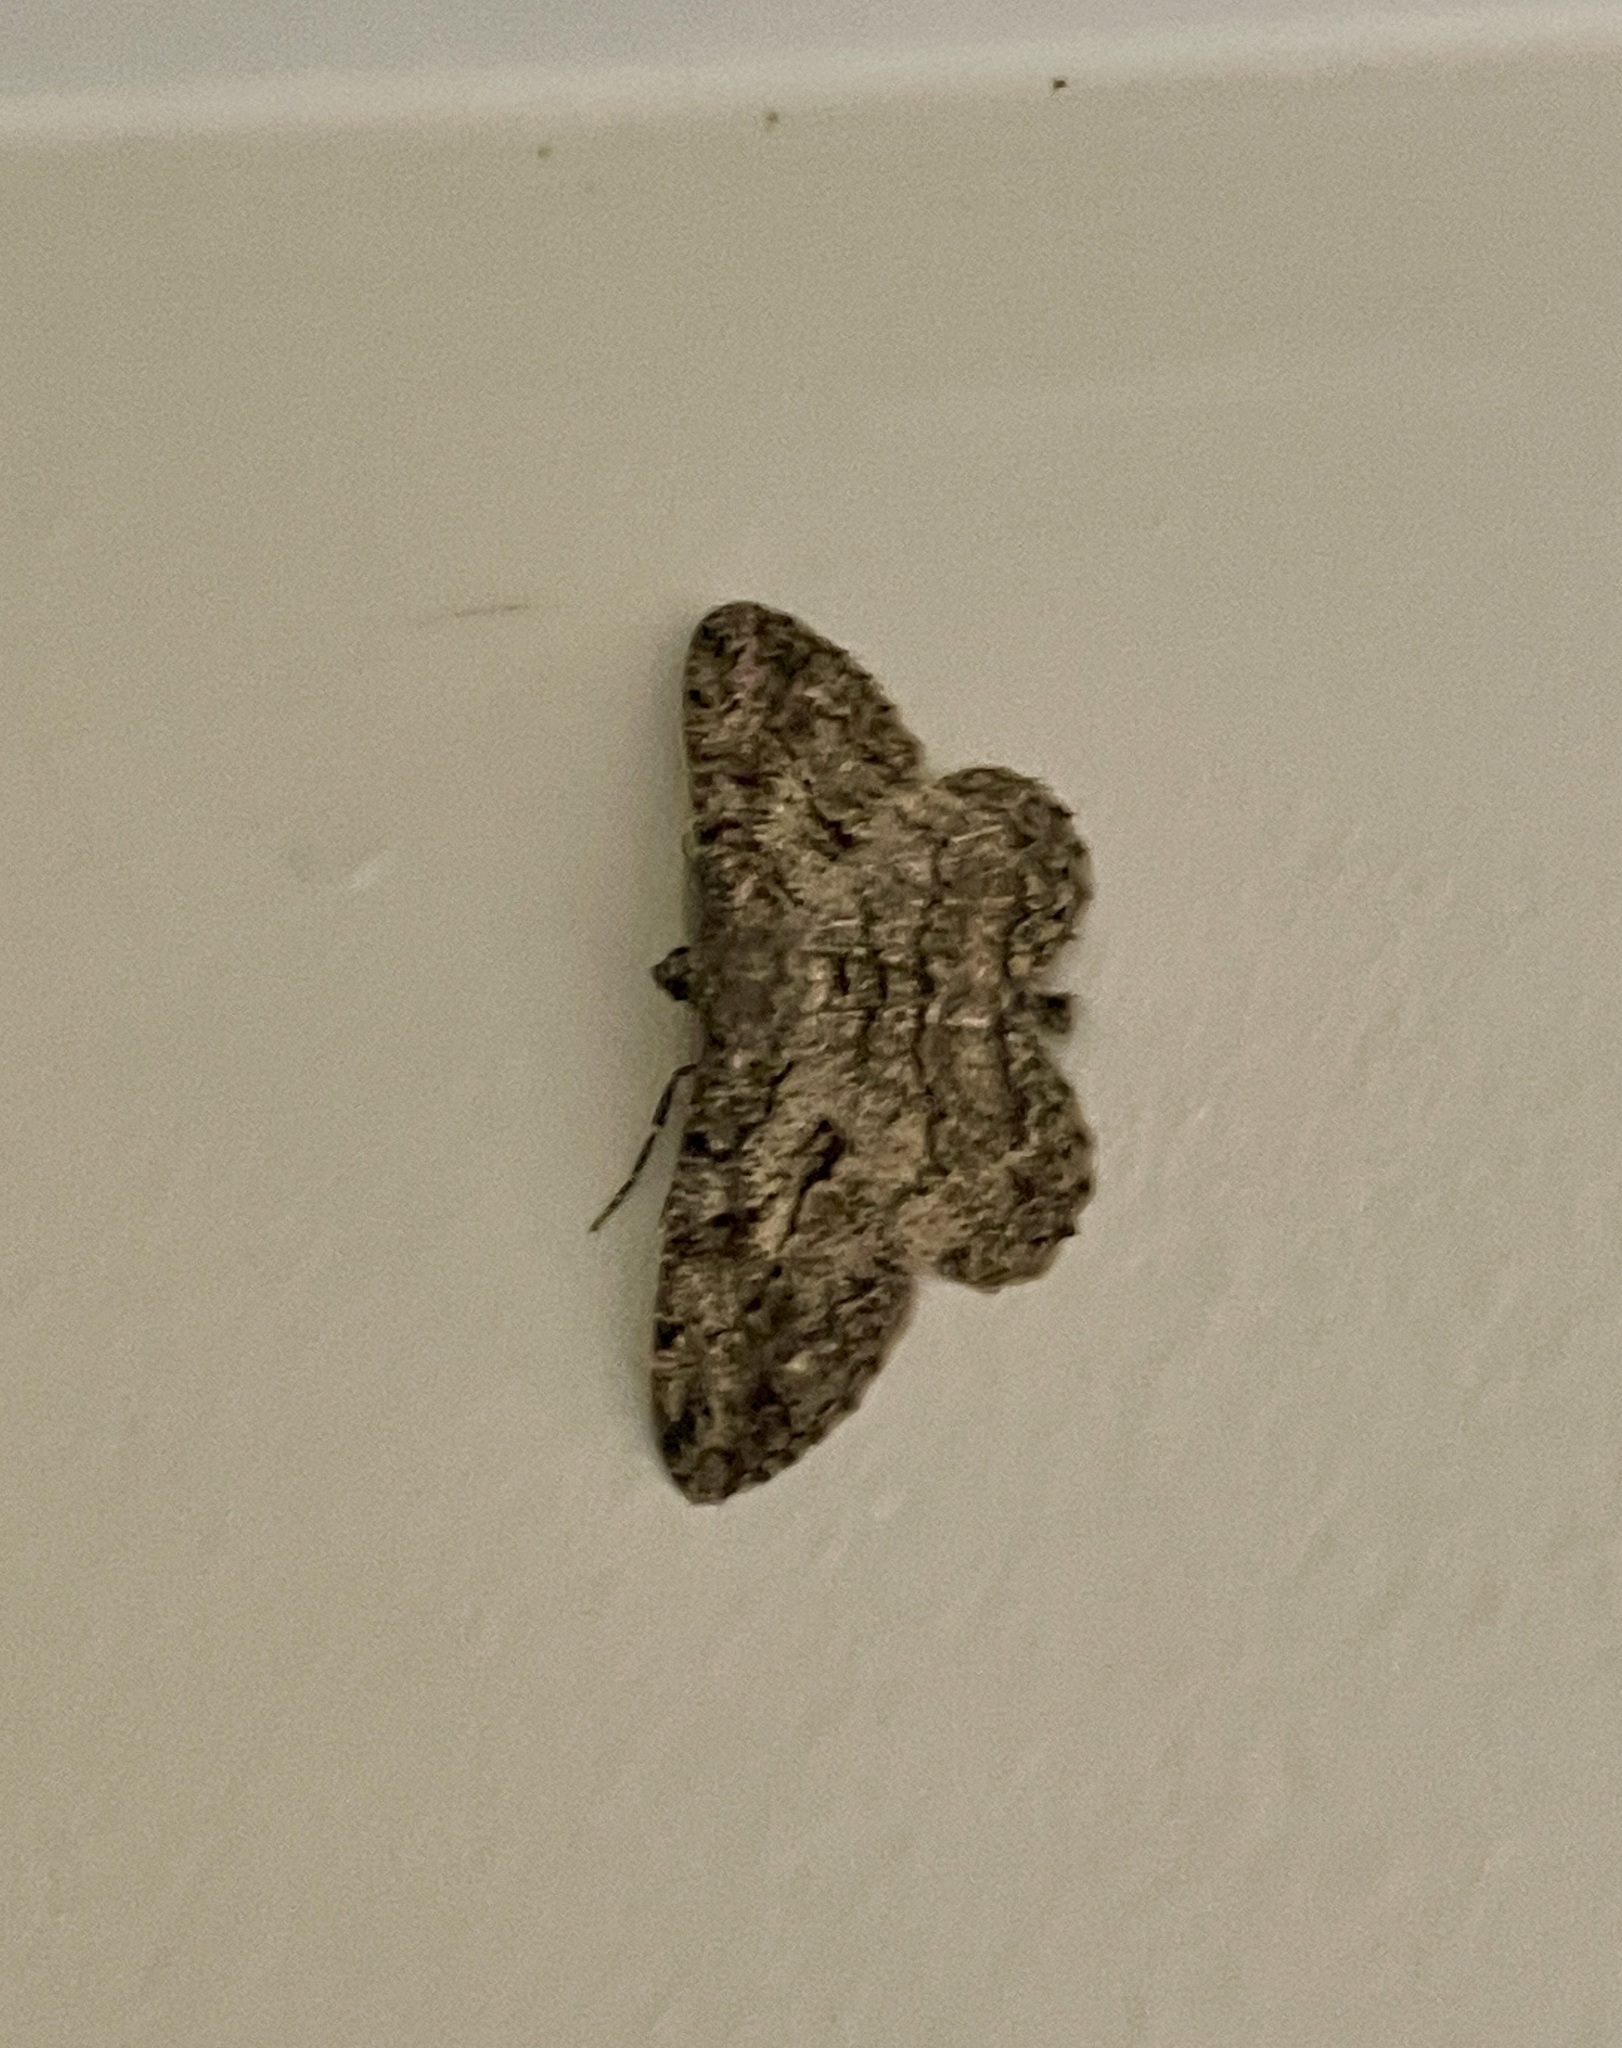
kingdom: Animalia
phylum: Arthropoda
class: Insecta
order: Lepidoptera
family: Geometridae
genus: Peribatodes
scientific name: Peribatodes rhomboidaria
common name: Willow beauty
